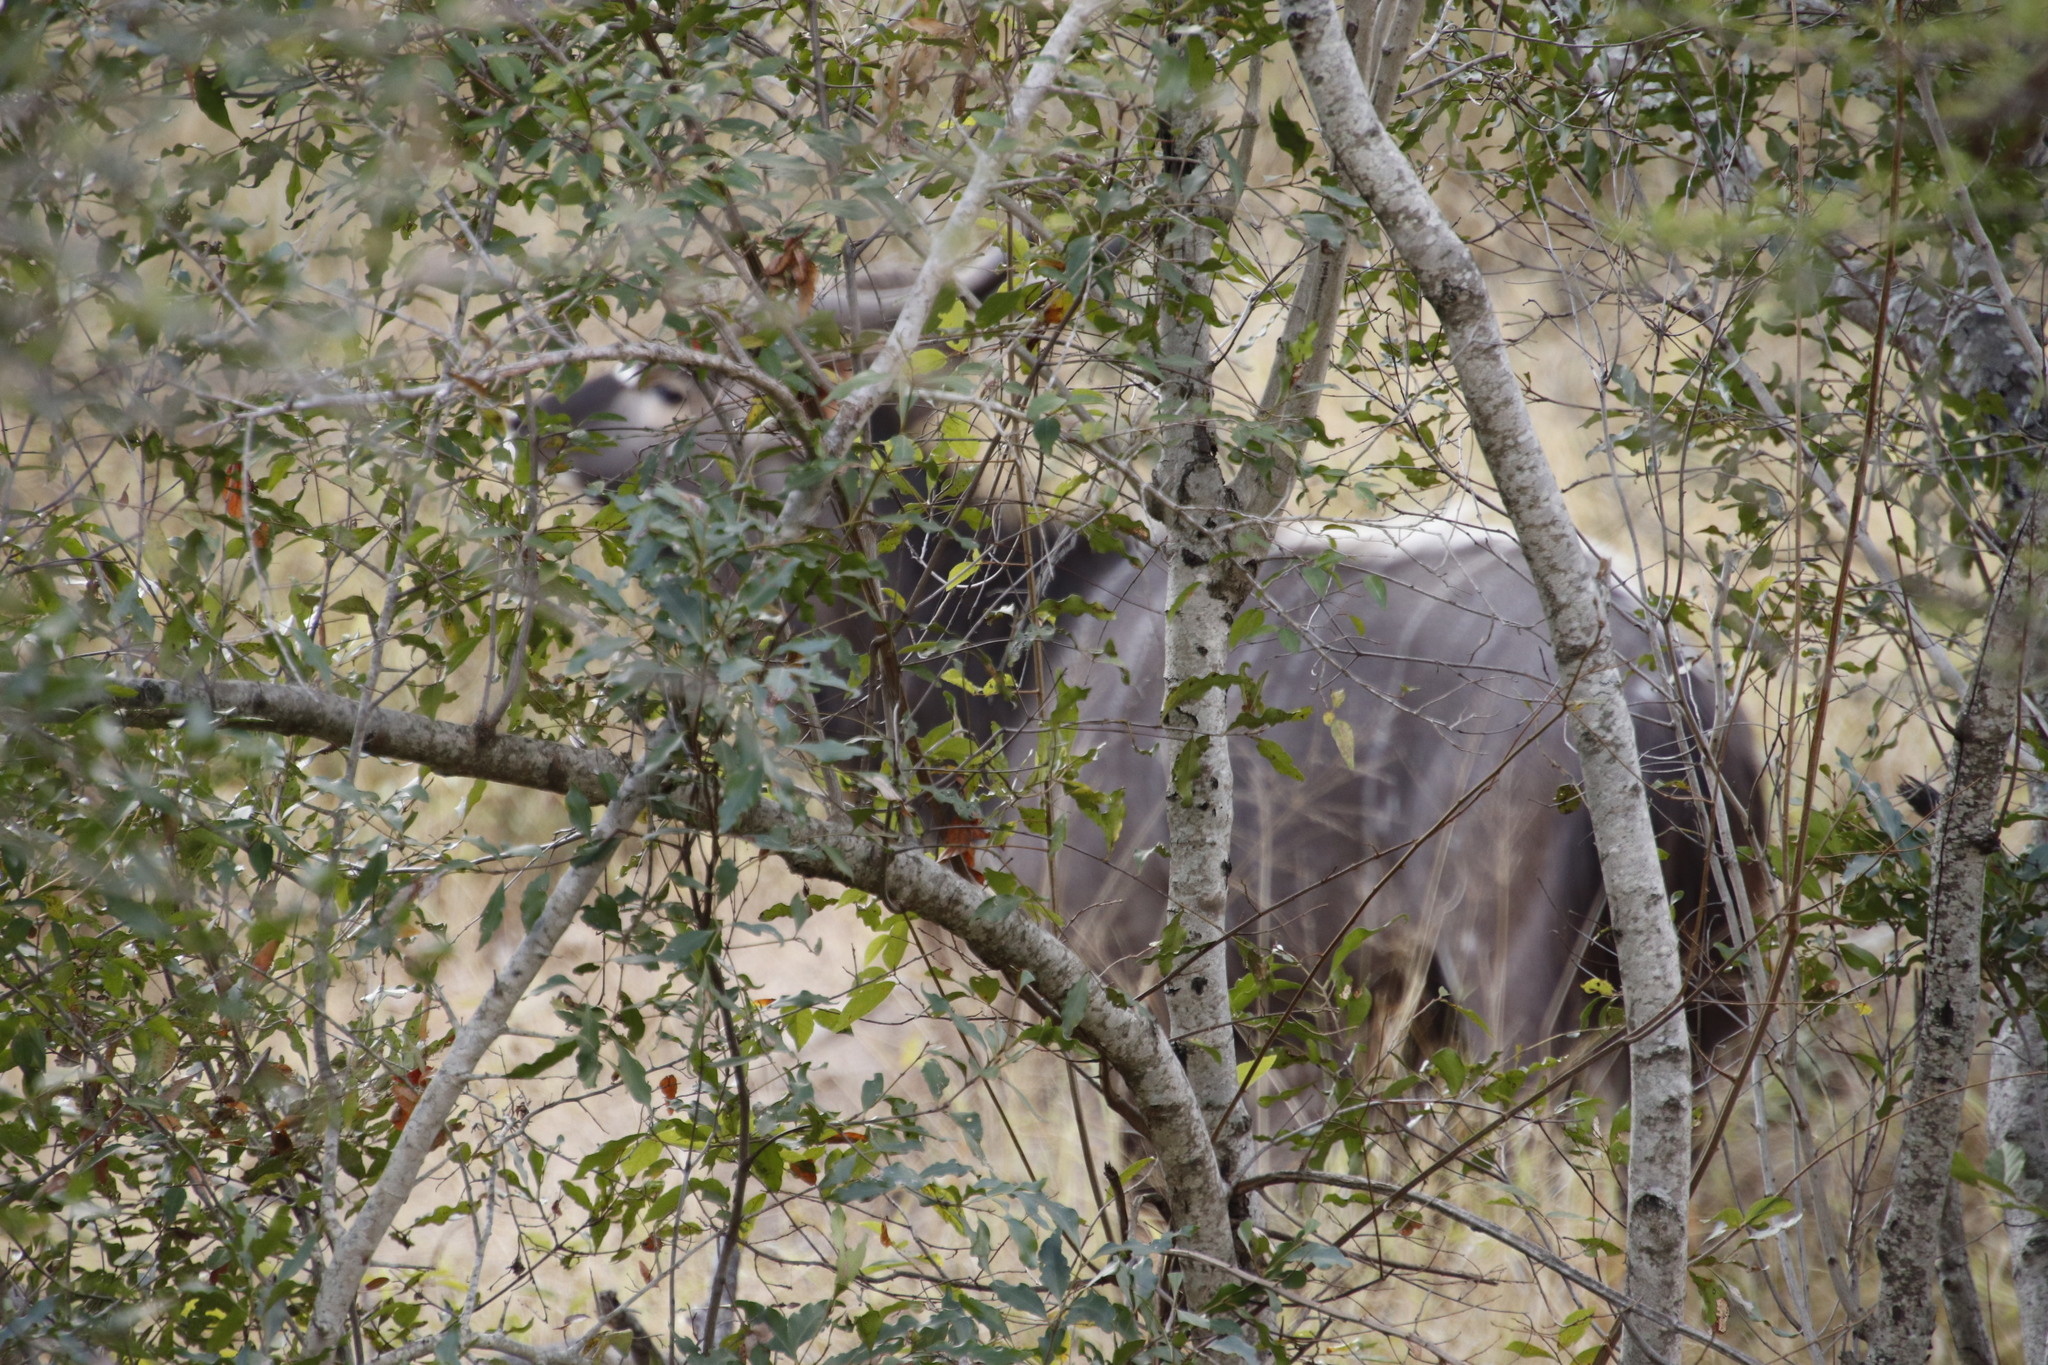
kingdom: Animalia
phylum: Chordata
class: Mammalia
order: Artiodactyla
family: Bovidae
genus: Tragelaphus
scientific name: Tragelaphus angasii
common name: Nyala
